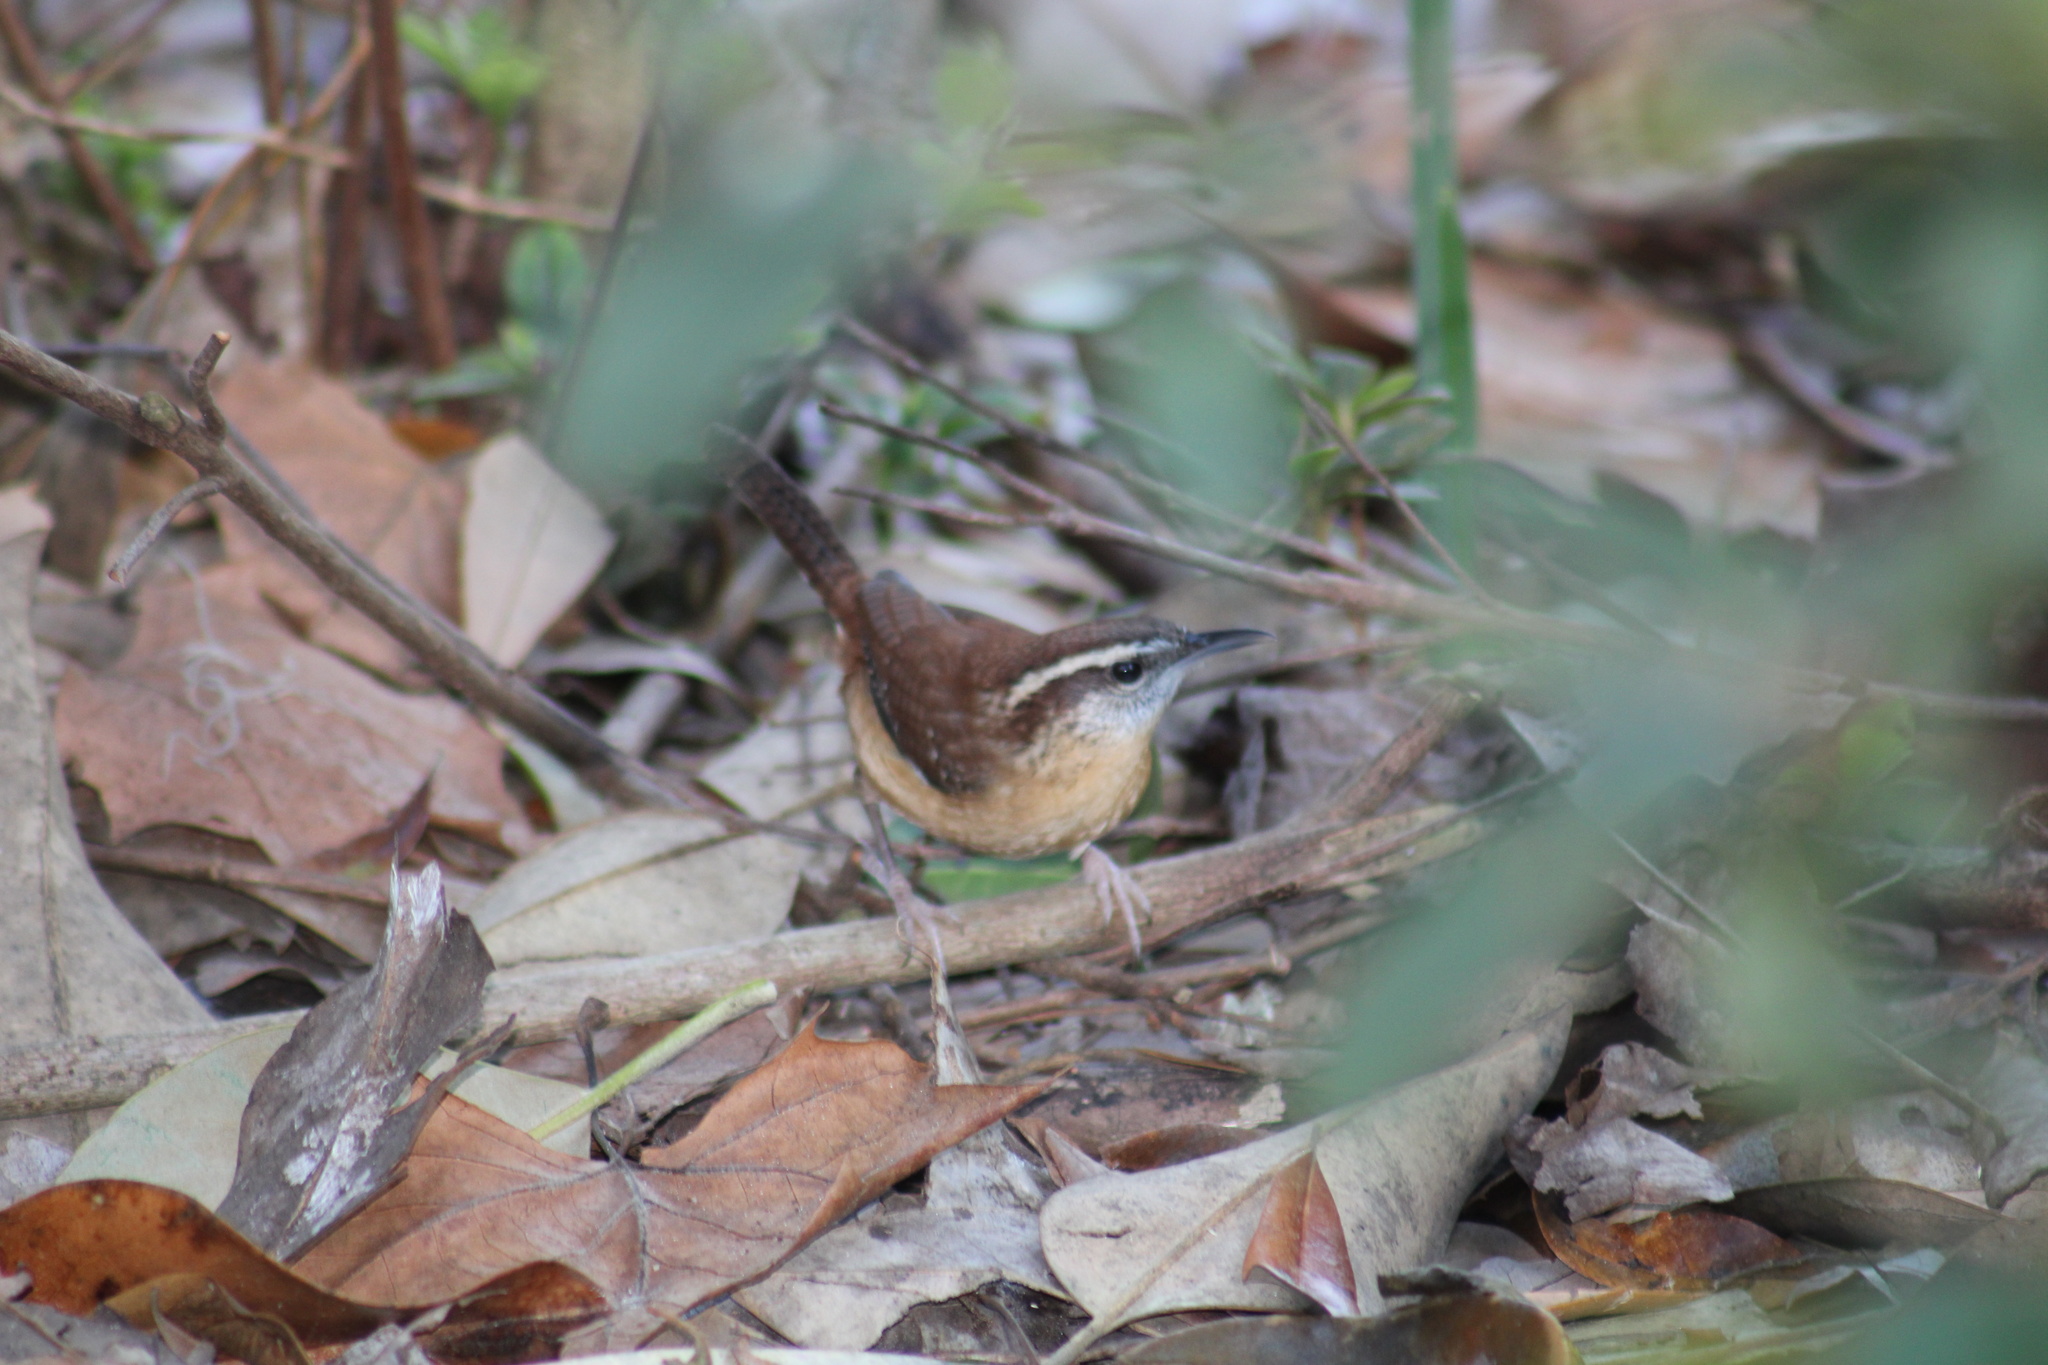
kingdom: Animalia
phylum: Chordata
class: Aves
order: Passeriformes
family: Troglodytidae
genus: Thryothorus
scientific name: Thryothorus ludovicianus
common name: Carolina wren
